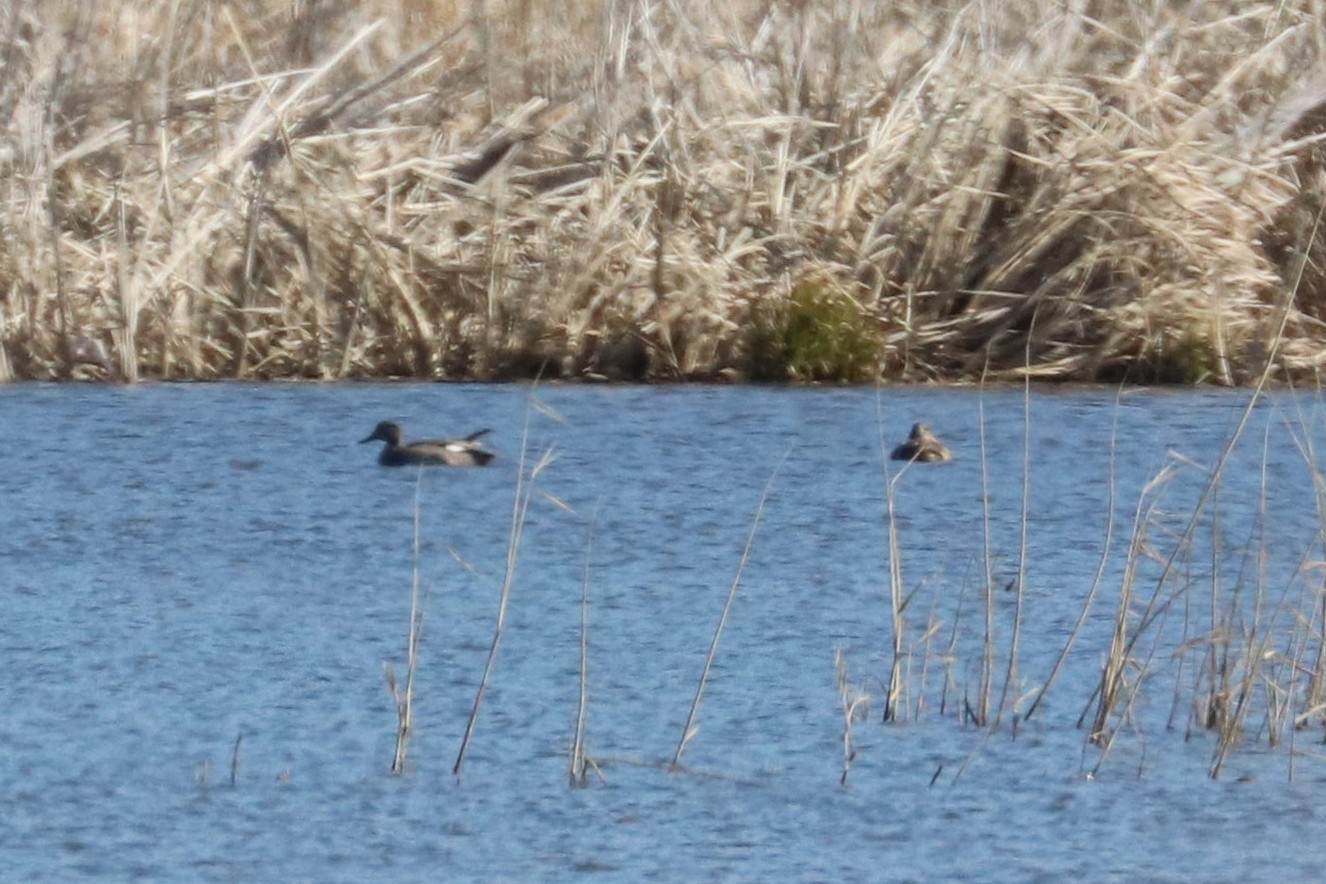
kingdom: Animalia
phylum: Chordata
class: Aves
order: Anseriformes
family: Anatidae
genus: Mareca
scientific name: Mareca strepera
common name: Gadwall
